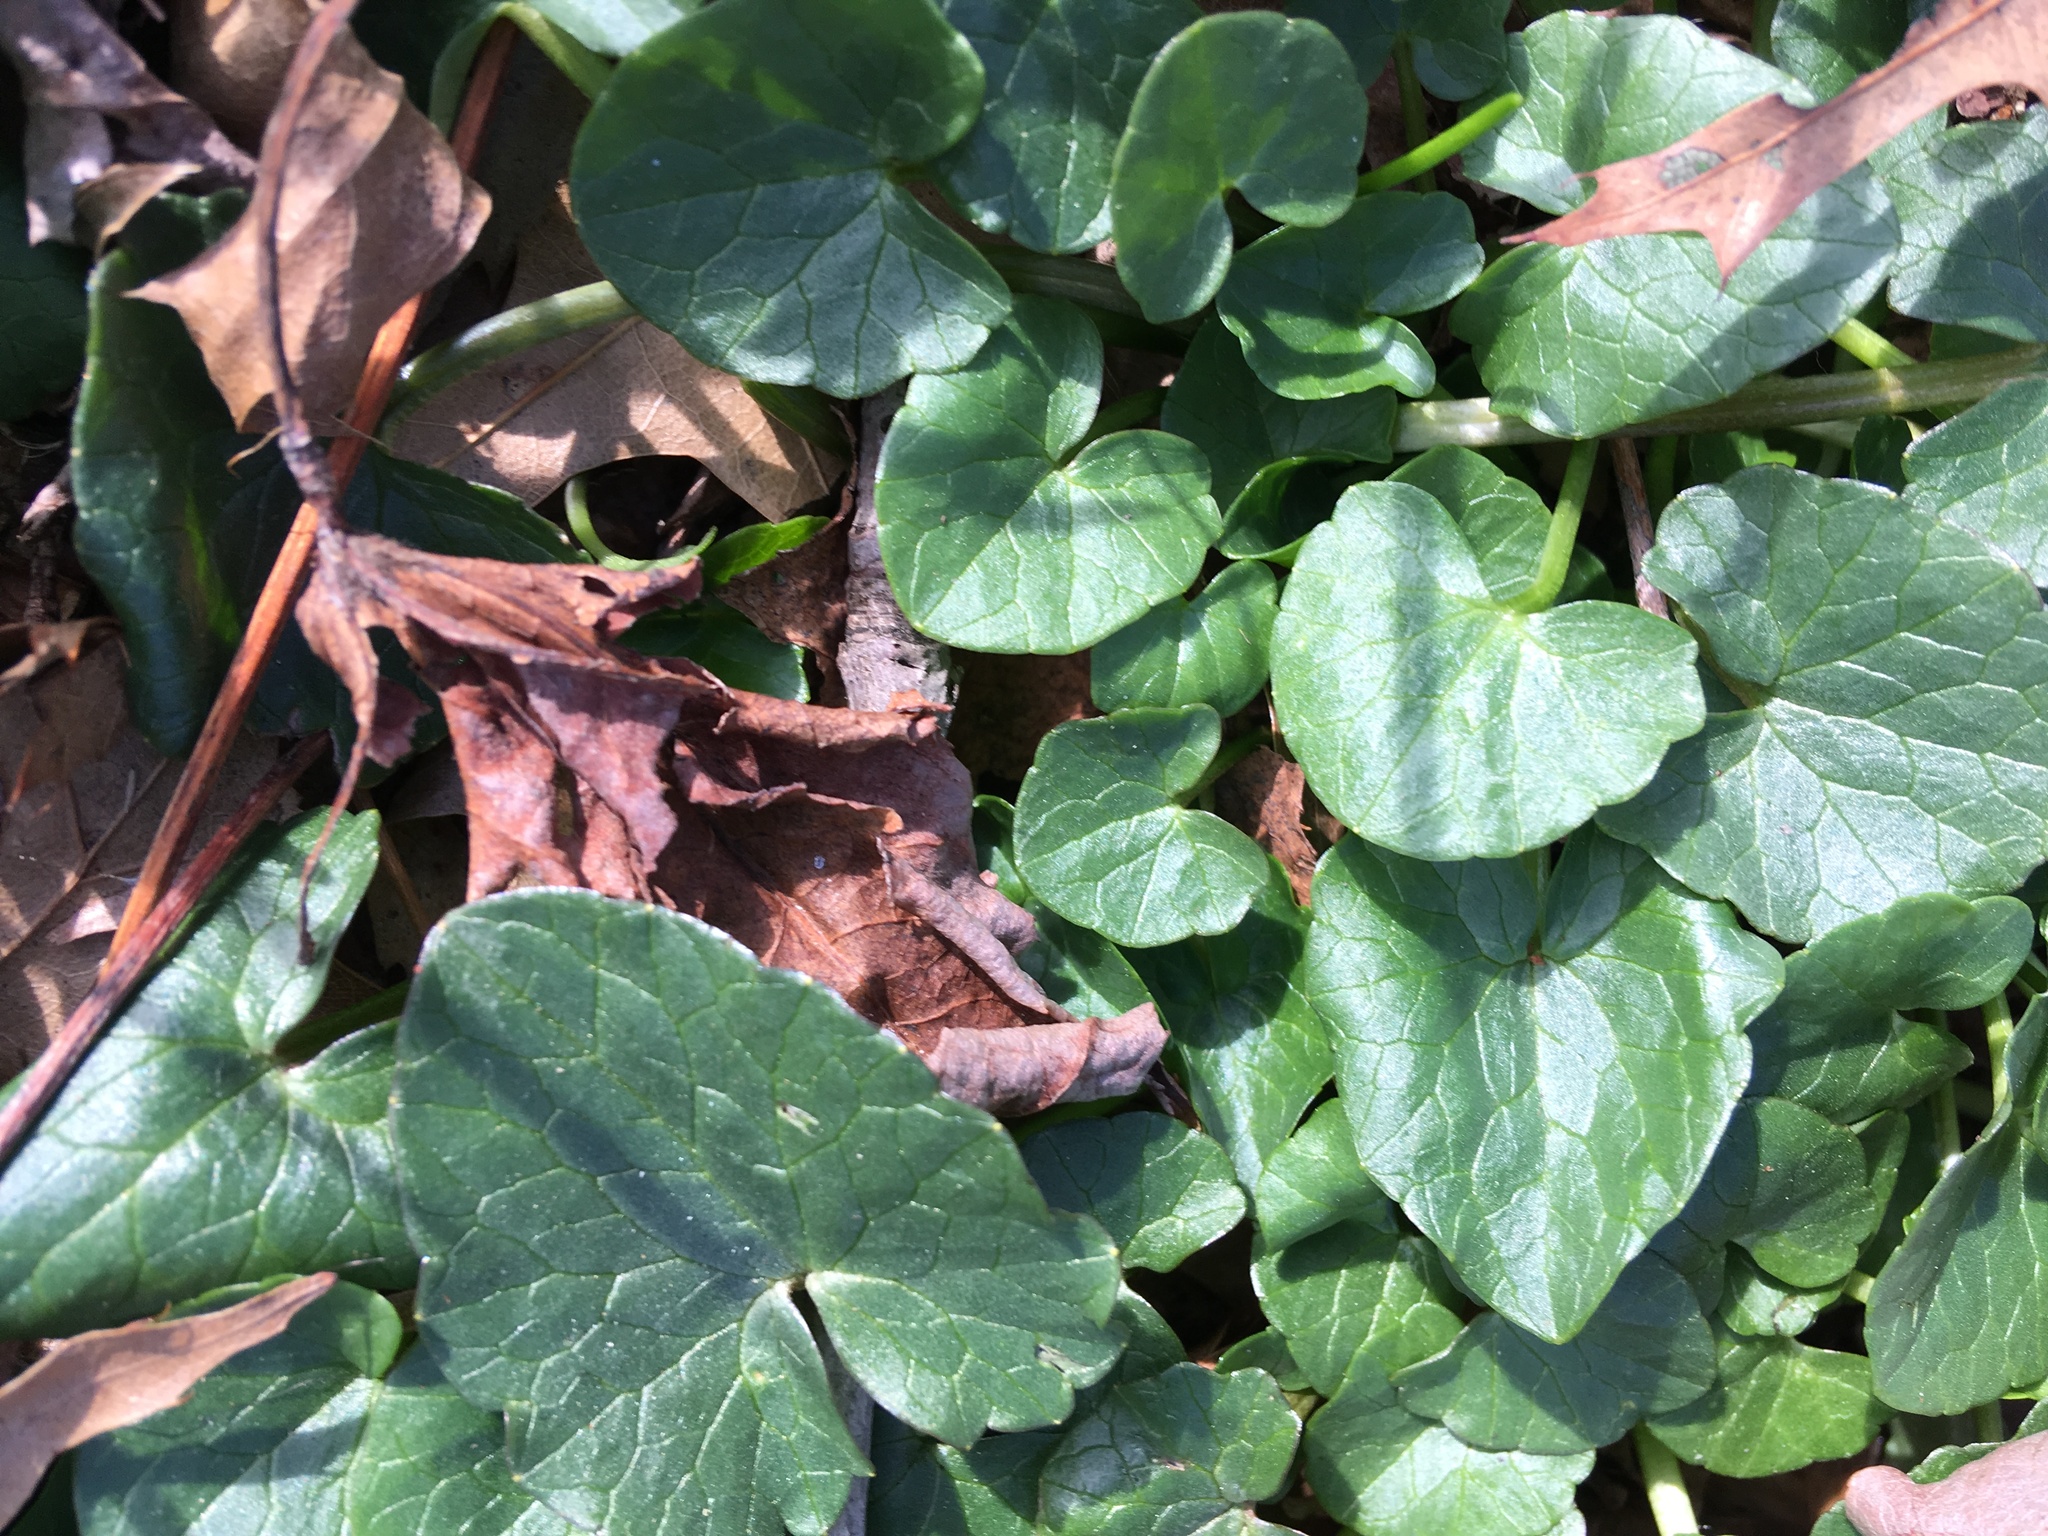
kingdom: Plantae
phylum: Tracheophyta
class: Magnoliopsida
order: Ranunculales
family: Ranunculaceae
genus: Ficaria
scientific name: Ficaria verna
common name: Lesser celandine
